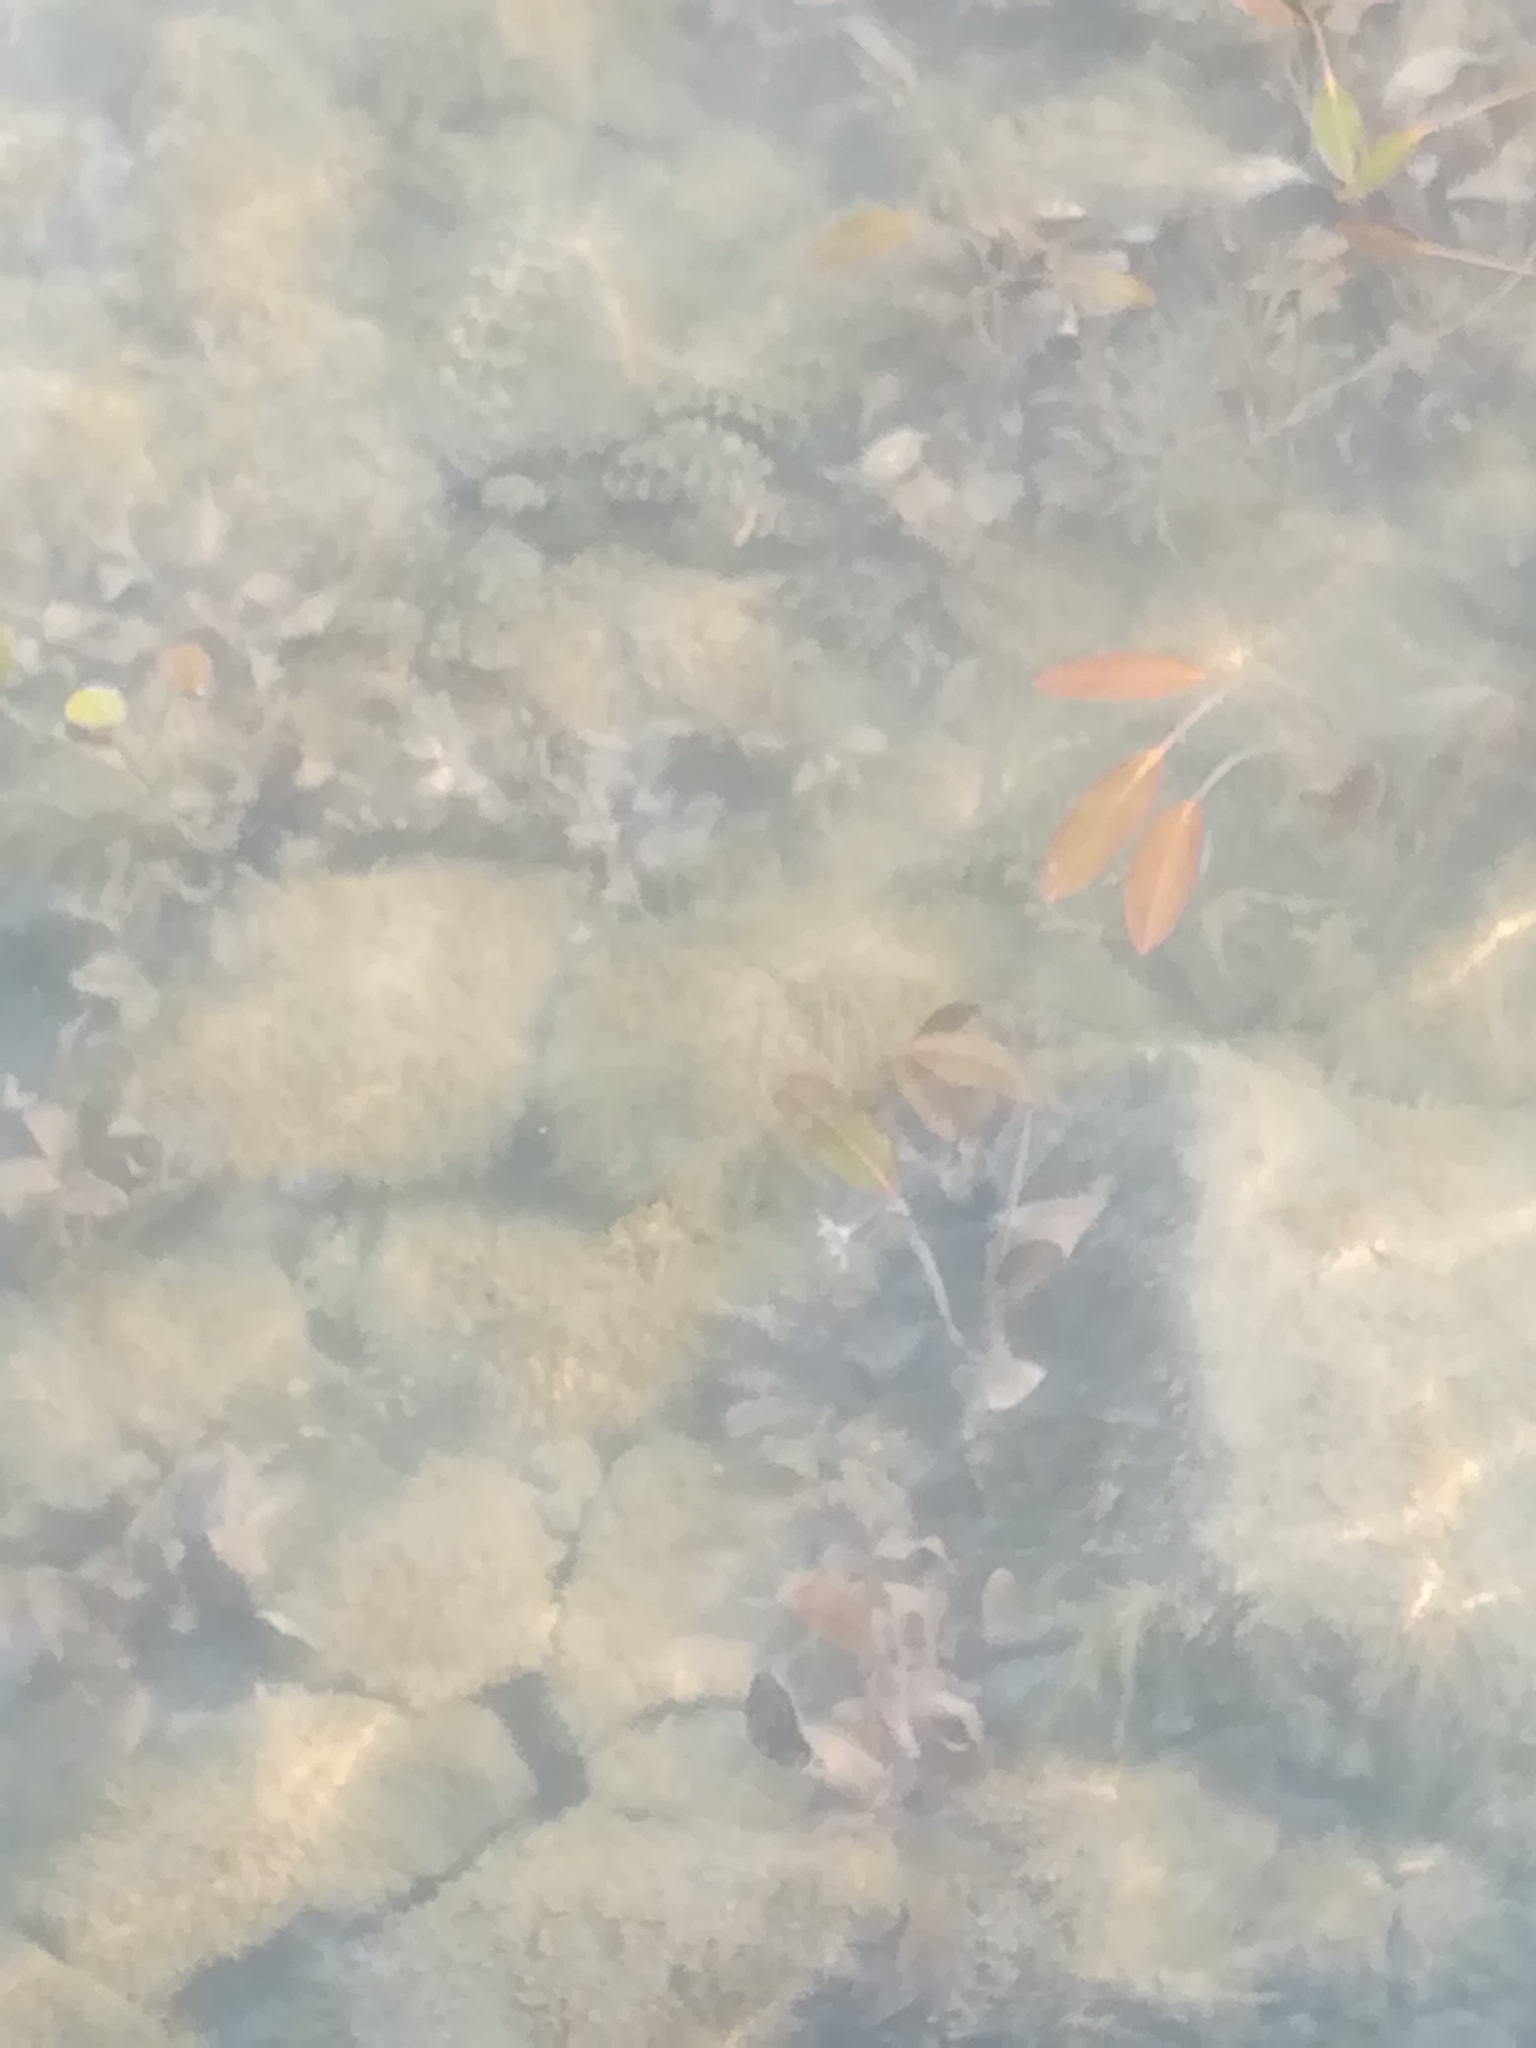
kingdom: Plantae
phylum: Tracheophyta
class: Liliopsida
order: Alismatales
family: Potamogetonaceae
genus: Potamogeton
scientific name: Potamogeton nodosus
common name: Loddon pondweed
